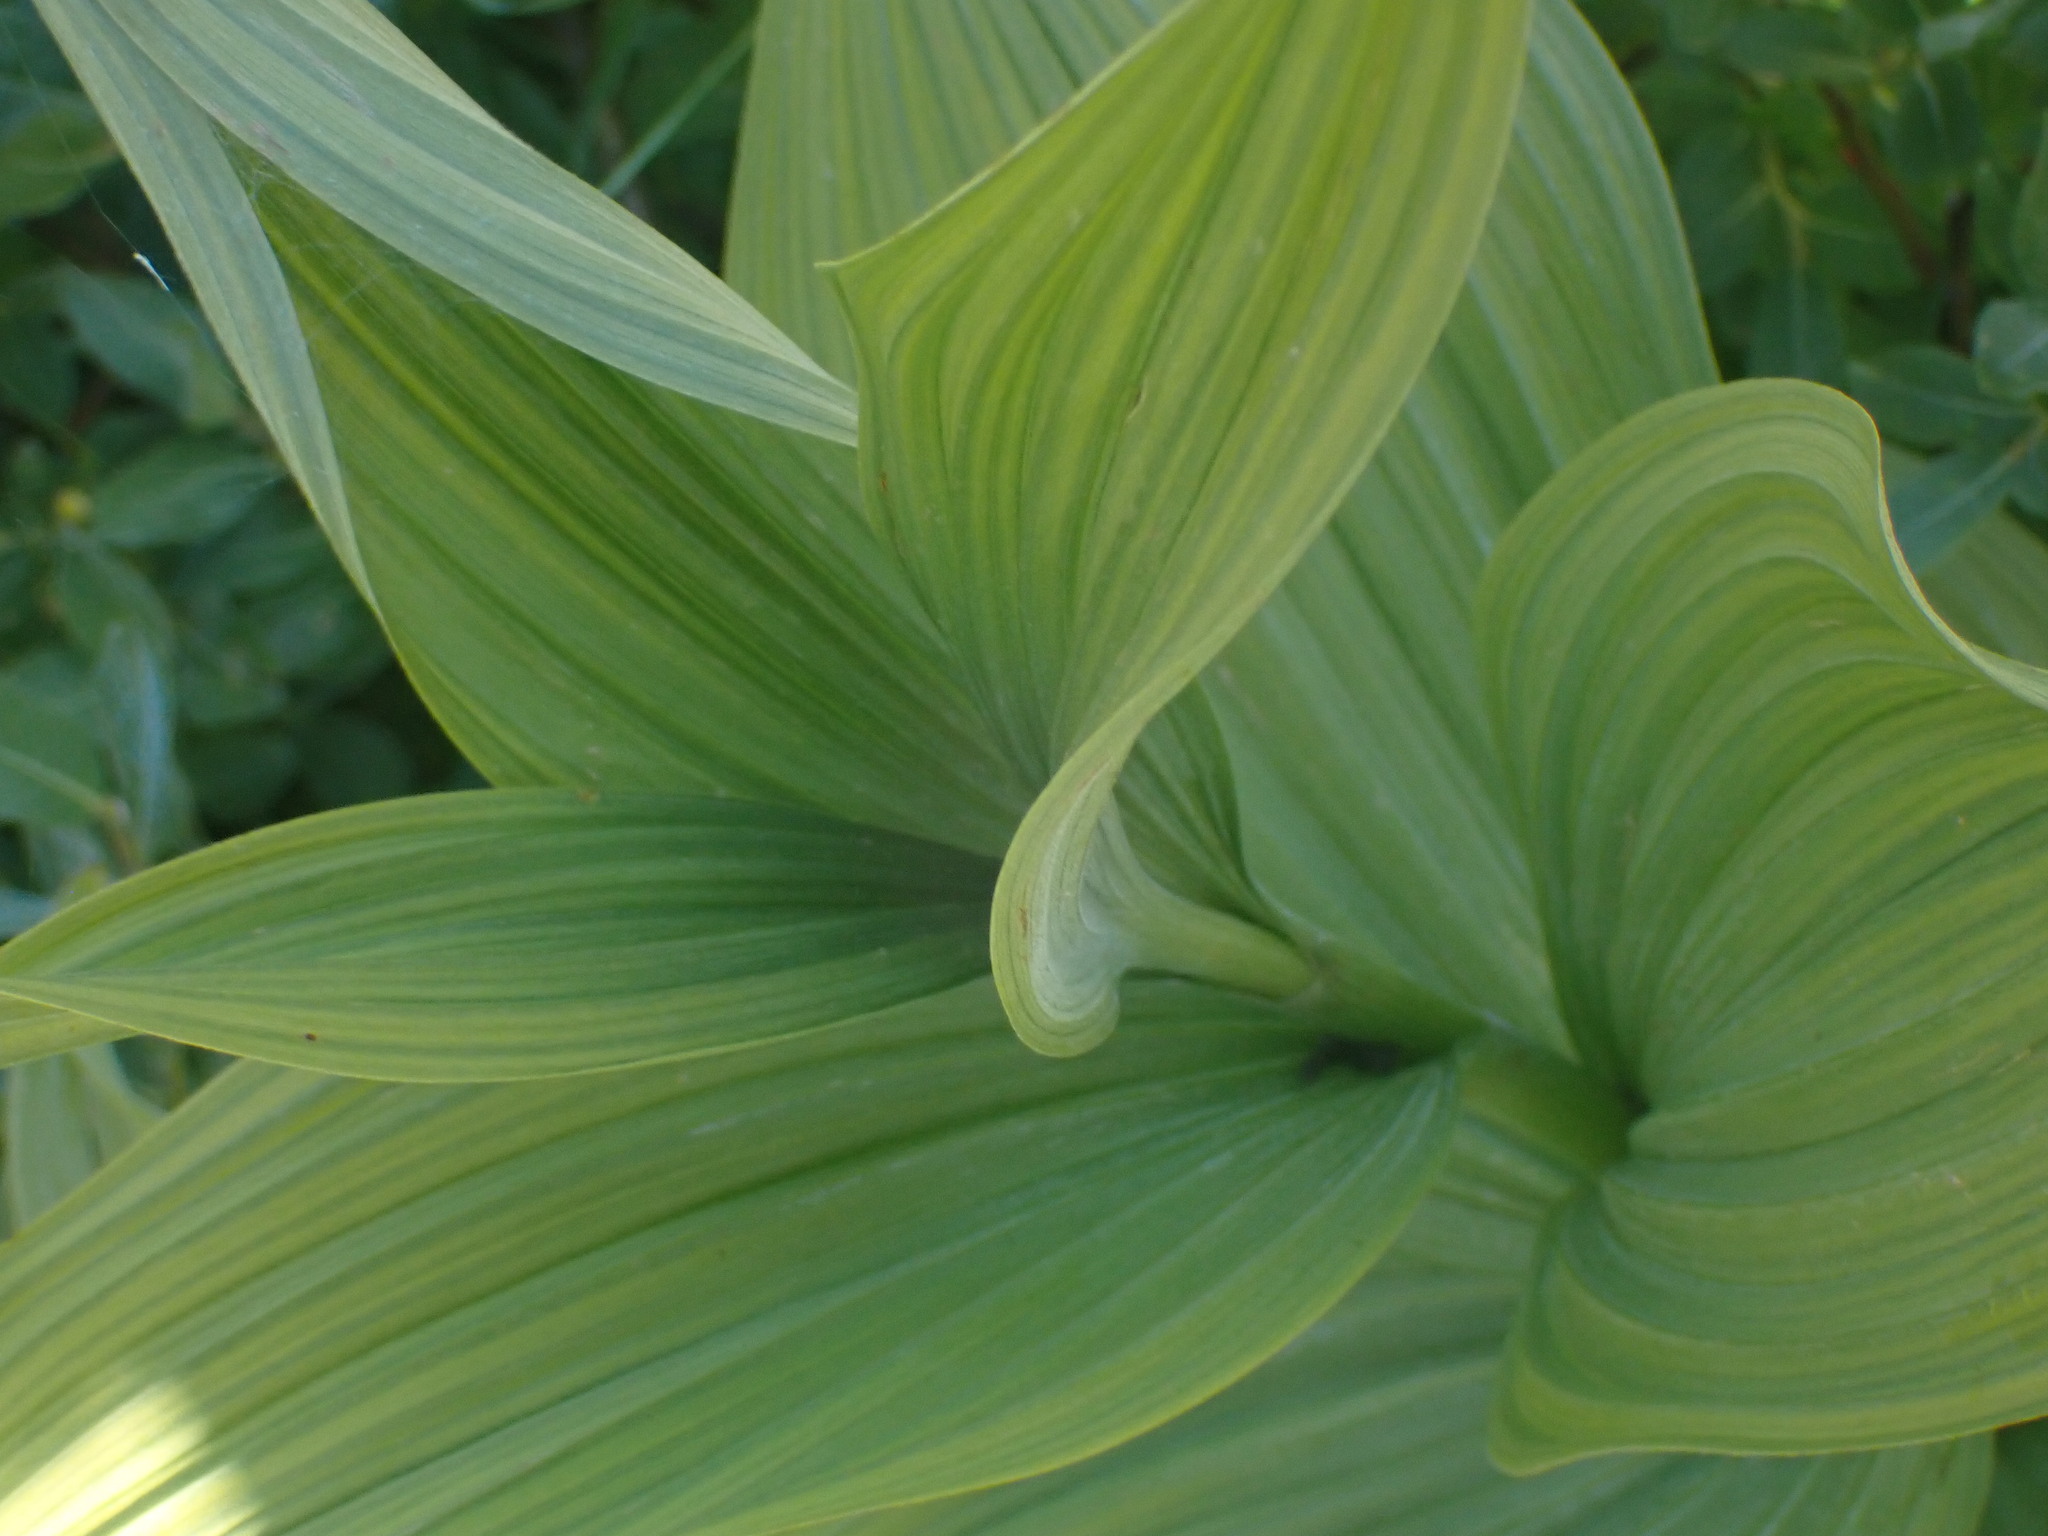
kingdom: Plantae
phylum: Tracheophyta
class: Liliopsida
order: Liliales
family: Melanthiaceae
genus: Veratrum
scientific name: Veratrum viride
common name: American false hellebore
